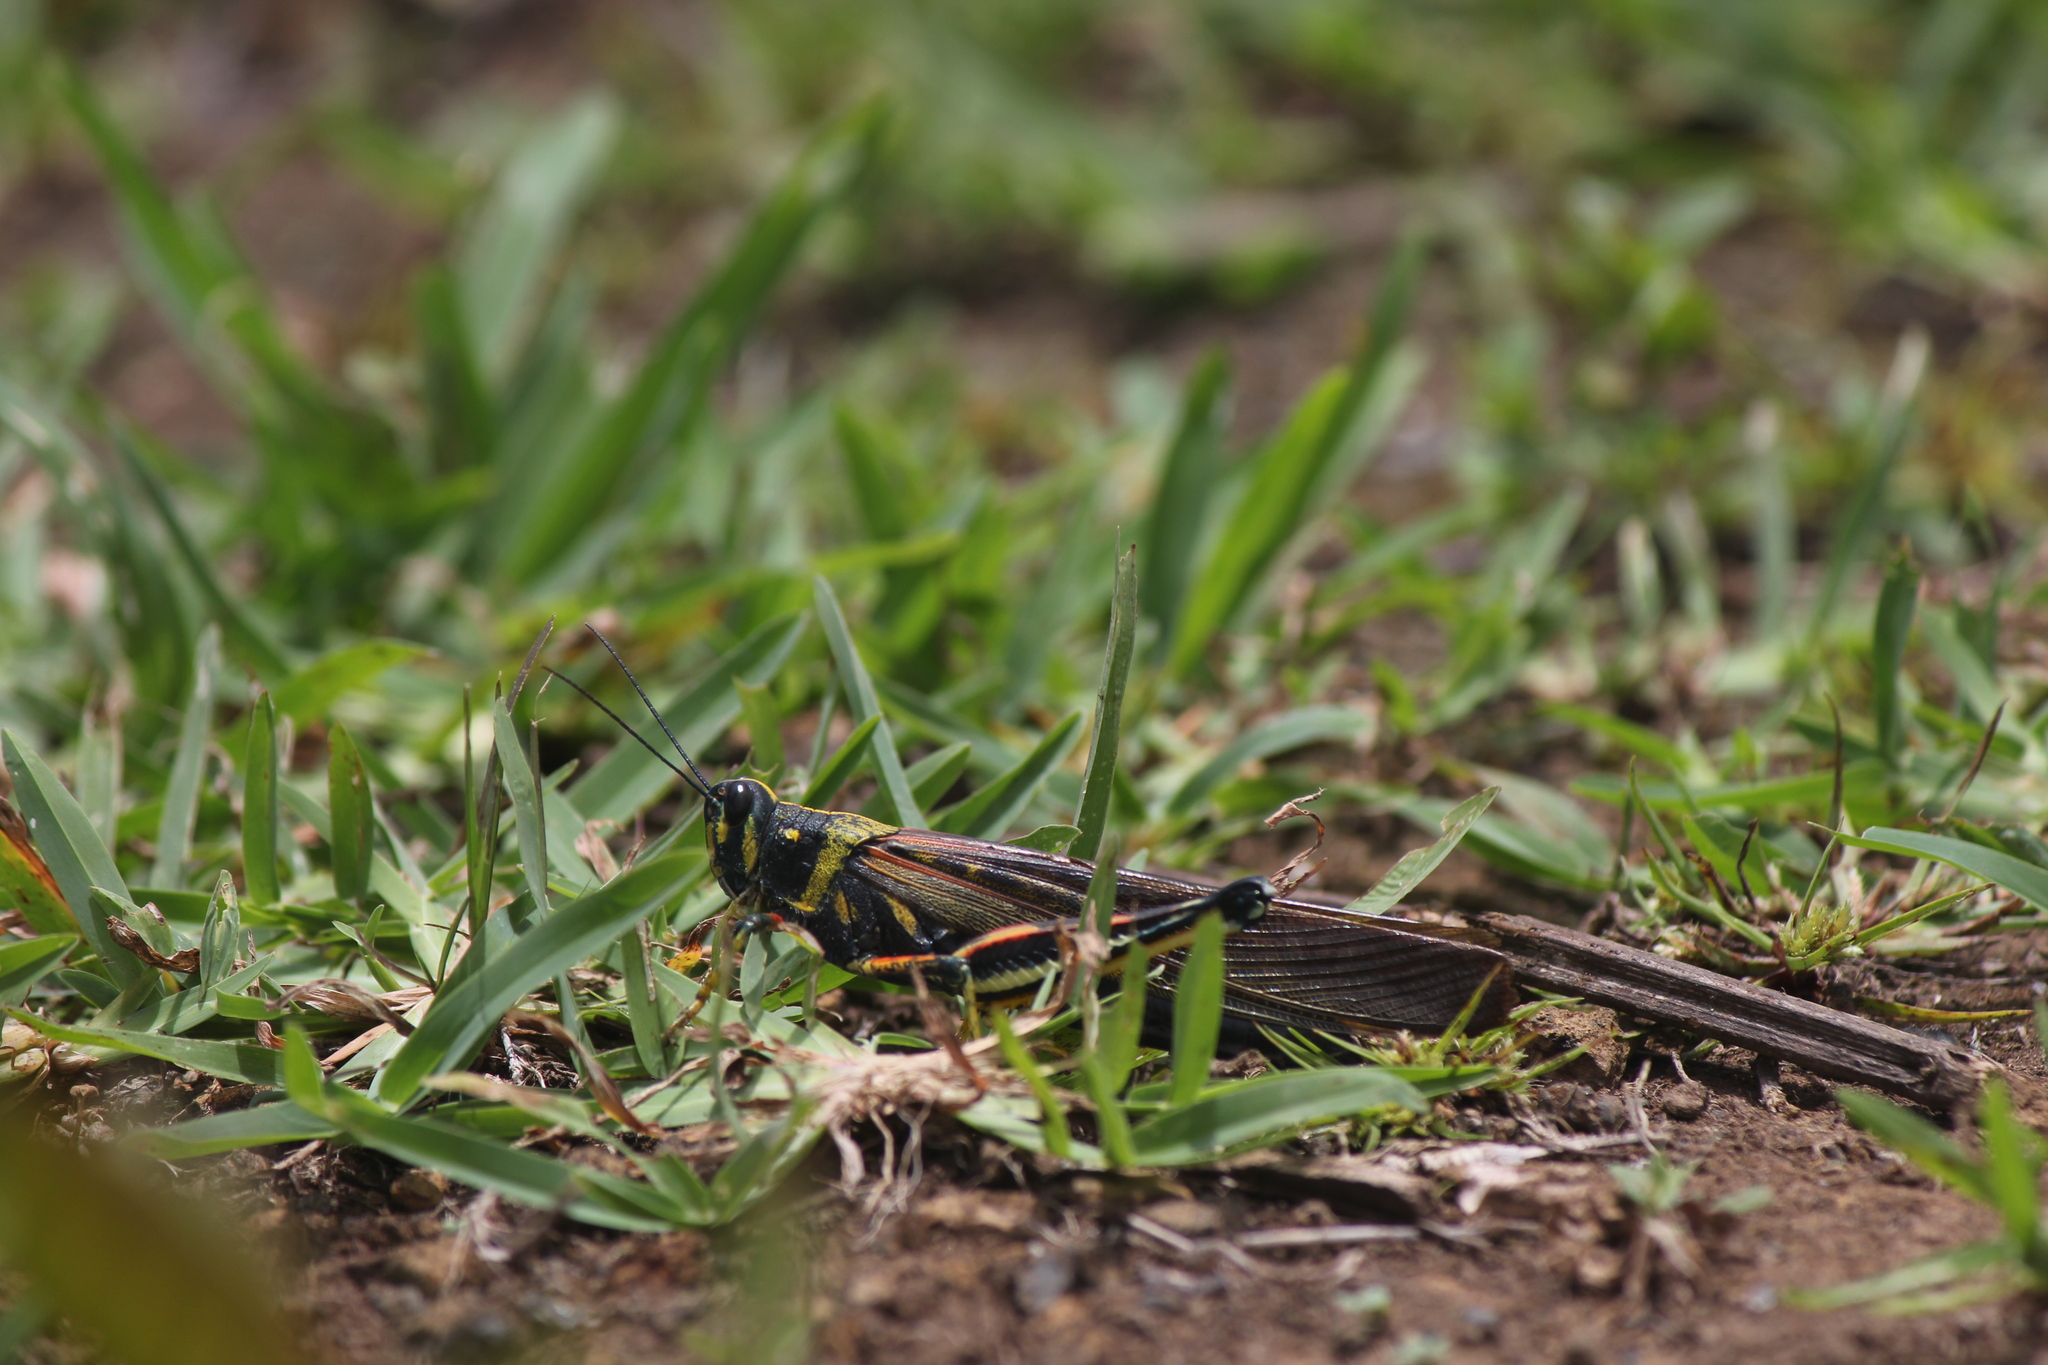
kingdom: Animalia
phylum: Arthropoda
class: Insecta
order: Orthoptera
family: Acrididae
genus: Schistocerca
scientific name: Schistocerca melanocera
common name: Large painted locust
